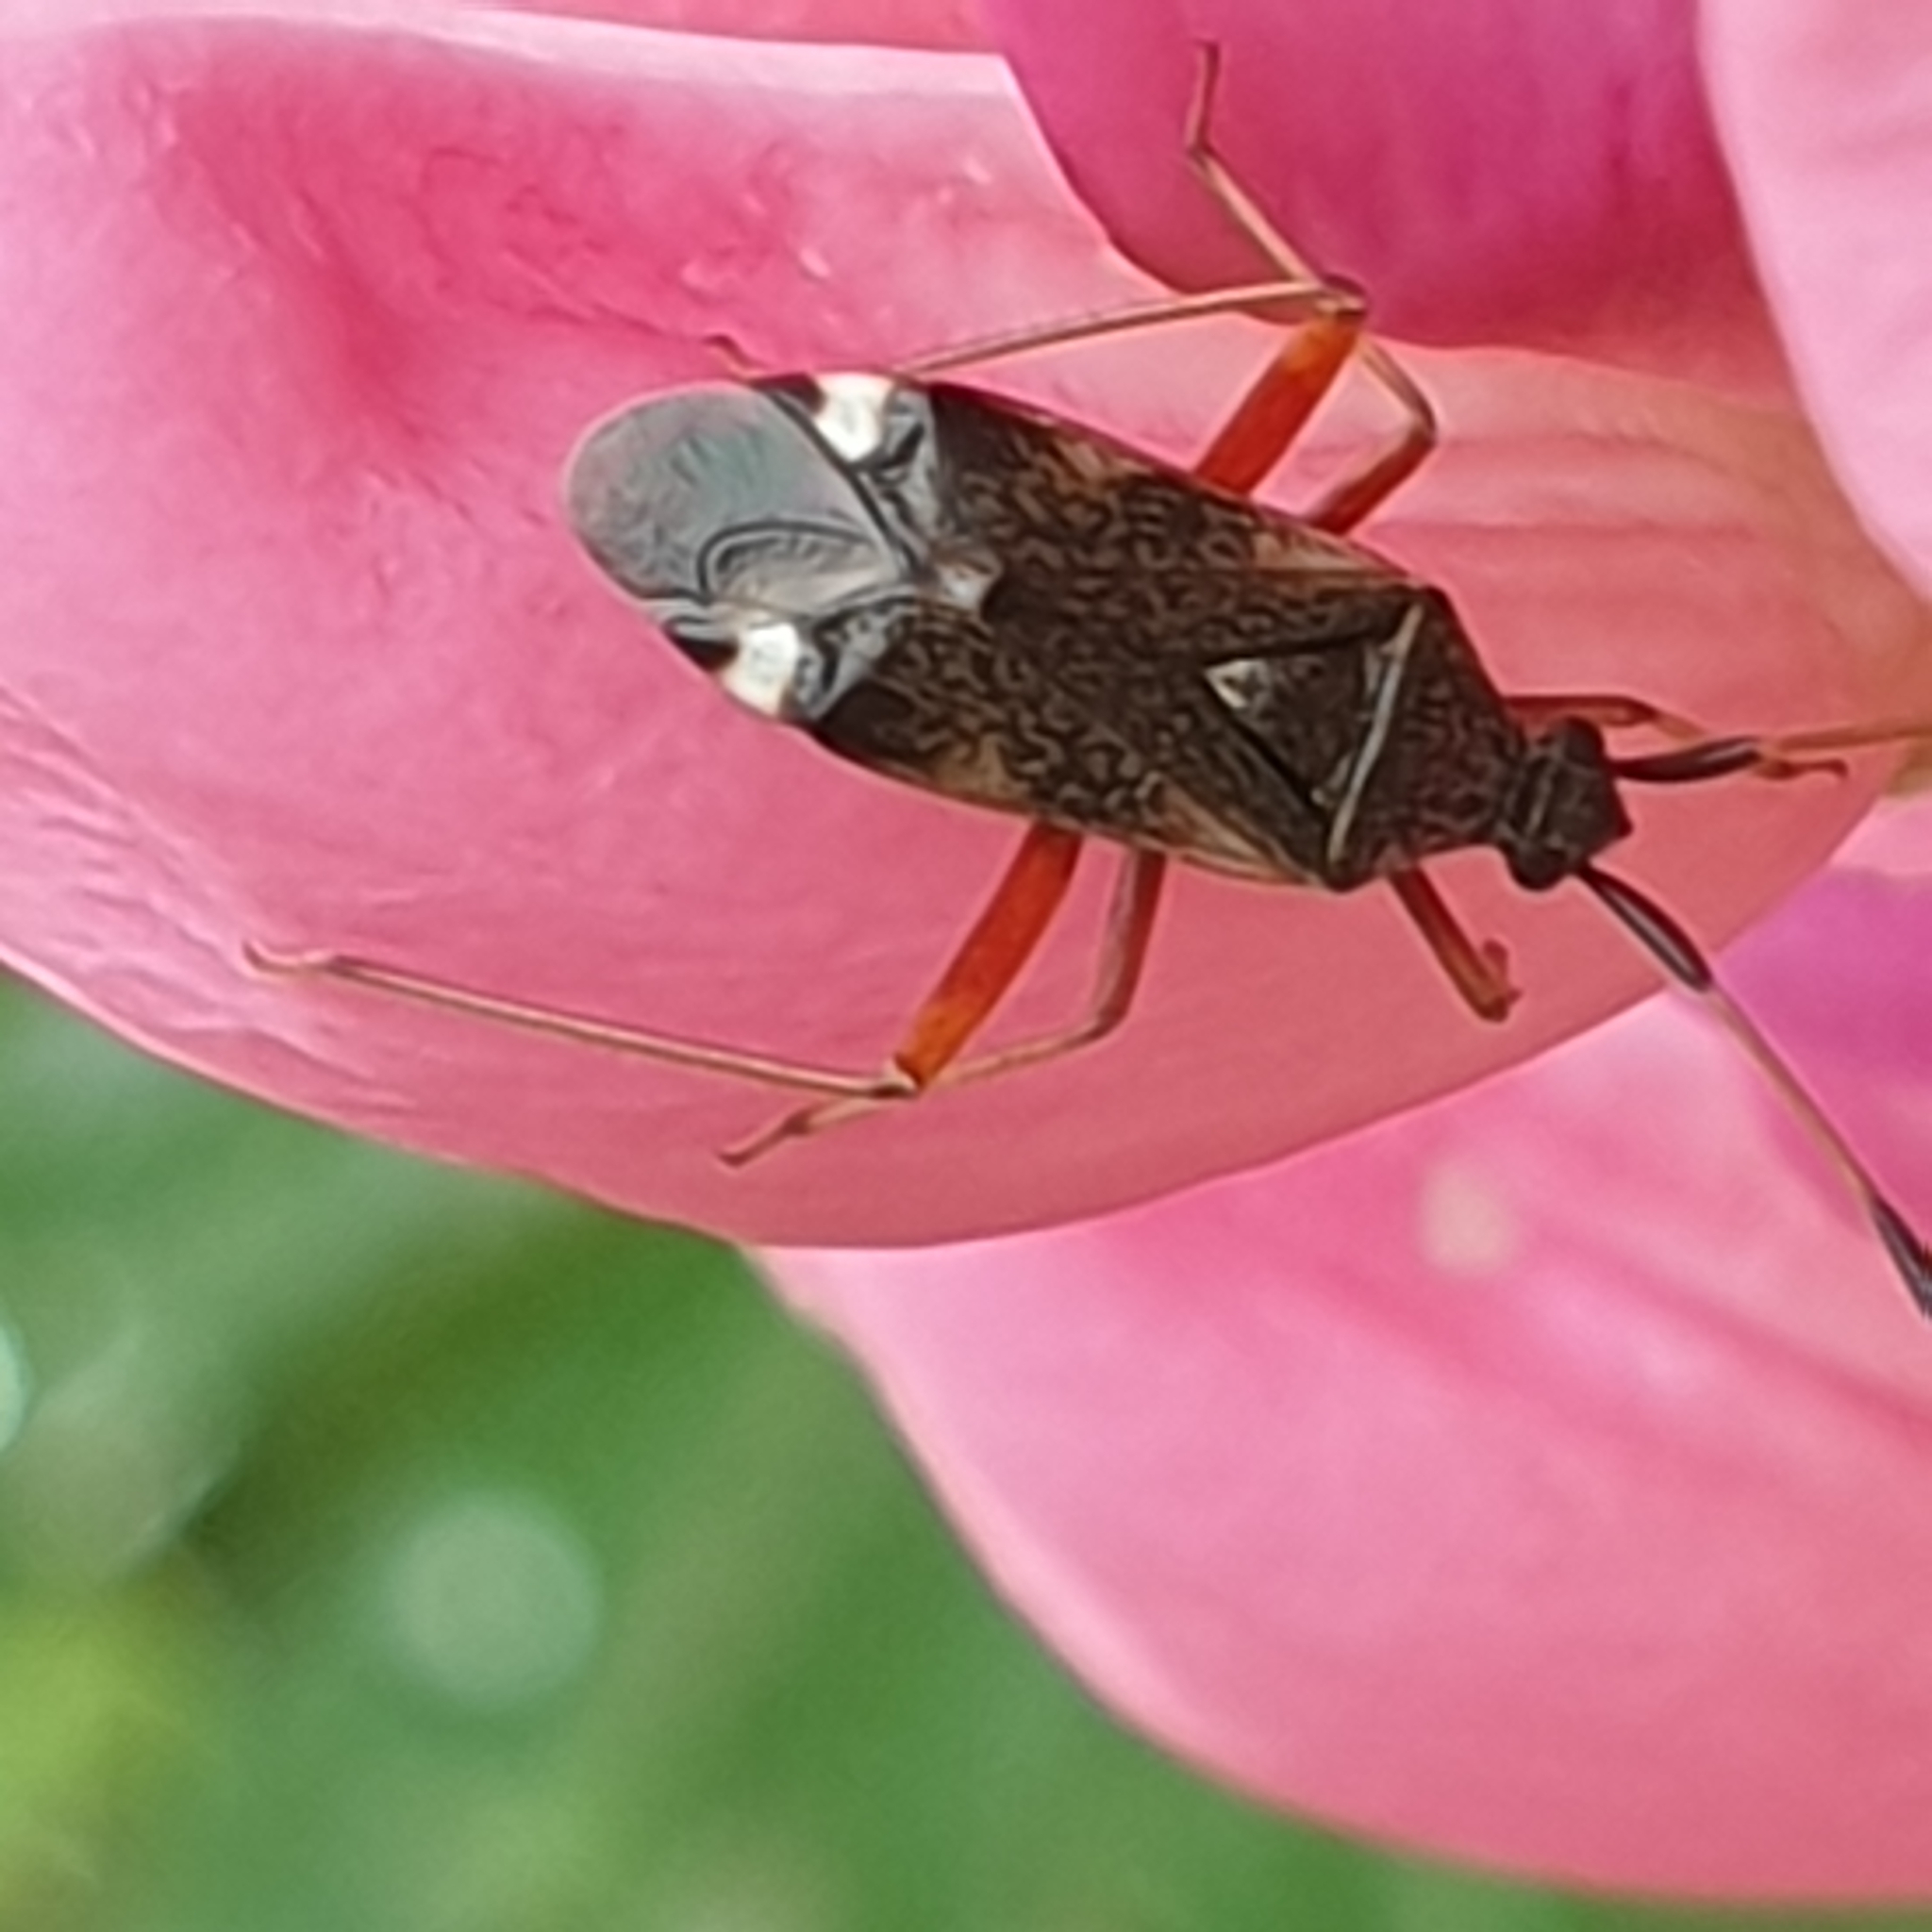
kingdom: Animalia
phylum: Arthropoda
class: Insecta
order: Hemiptera
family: Miridae
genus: Closterotomus
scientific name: Closterotomus biclavatus
